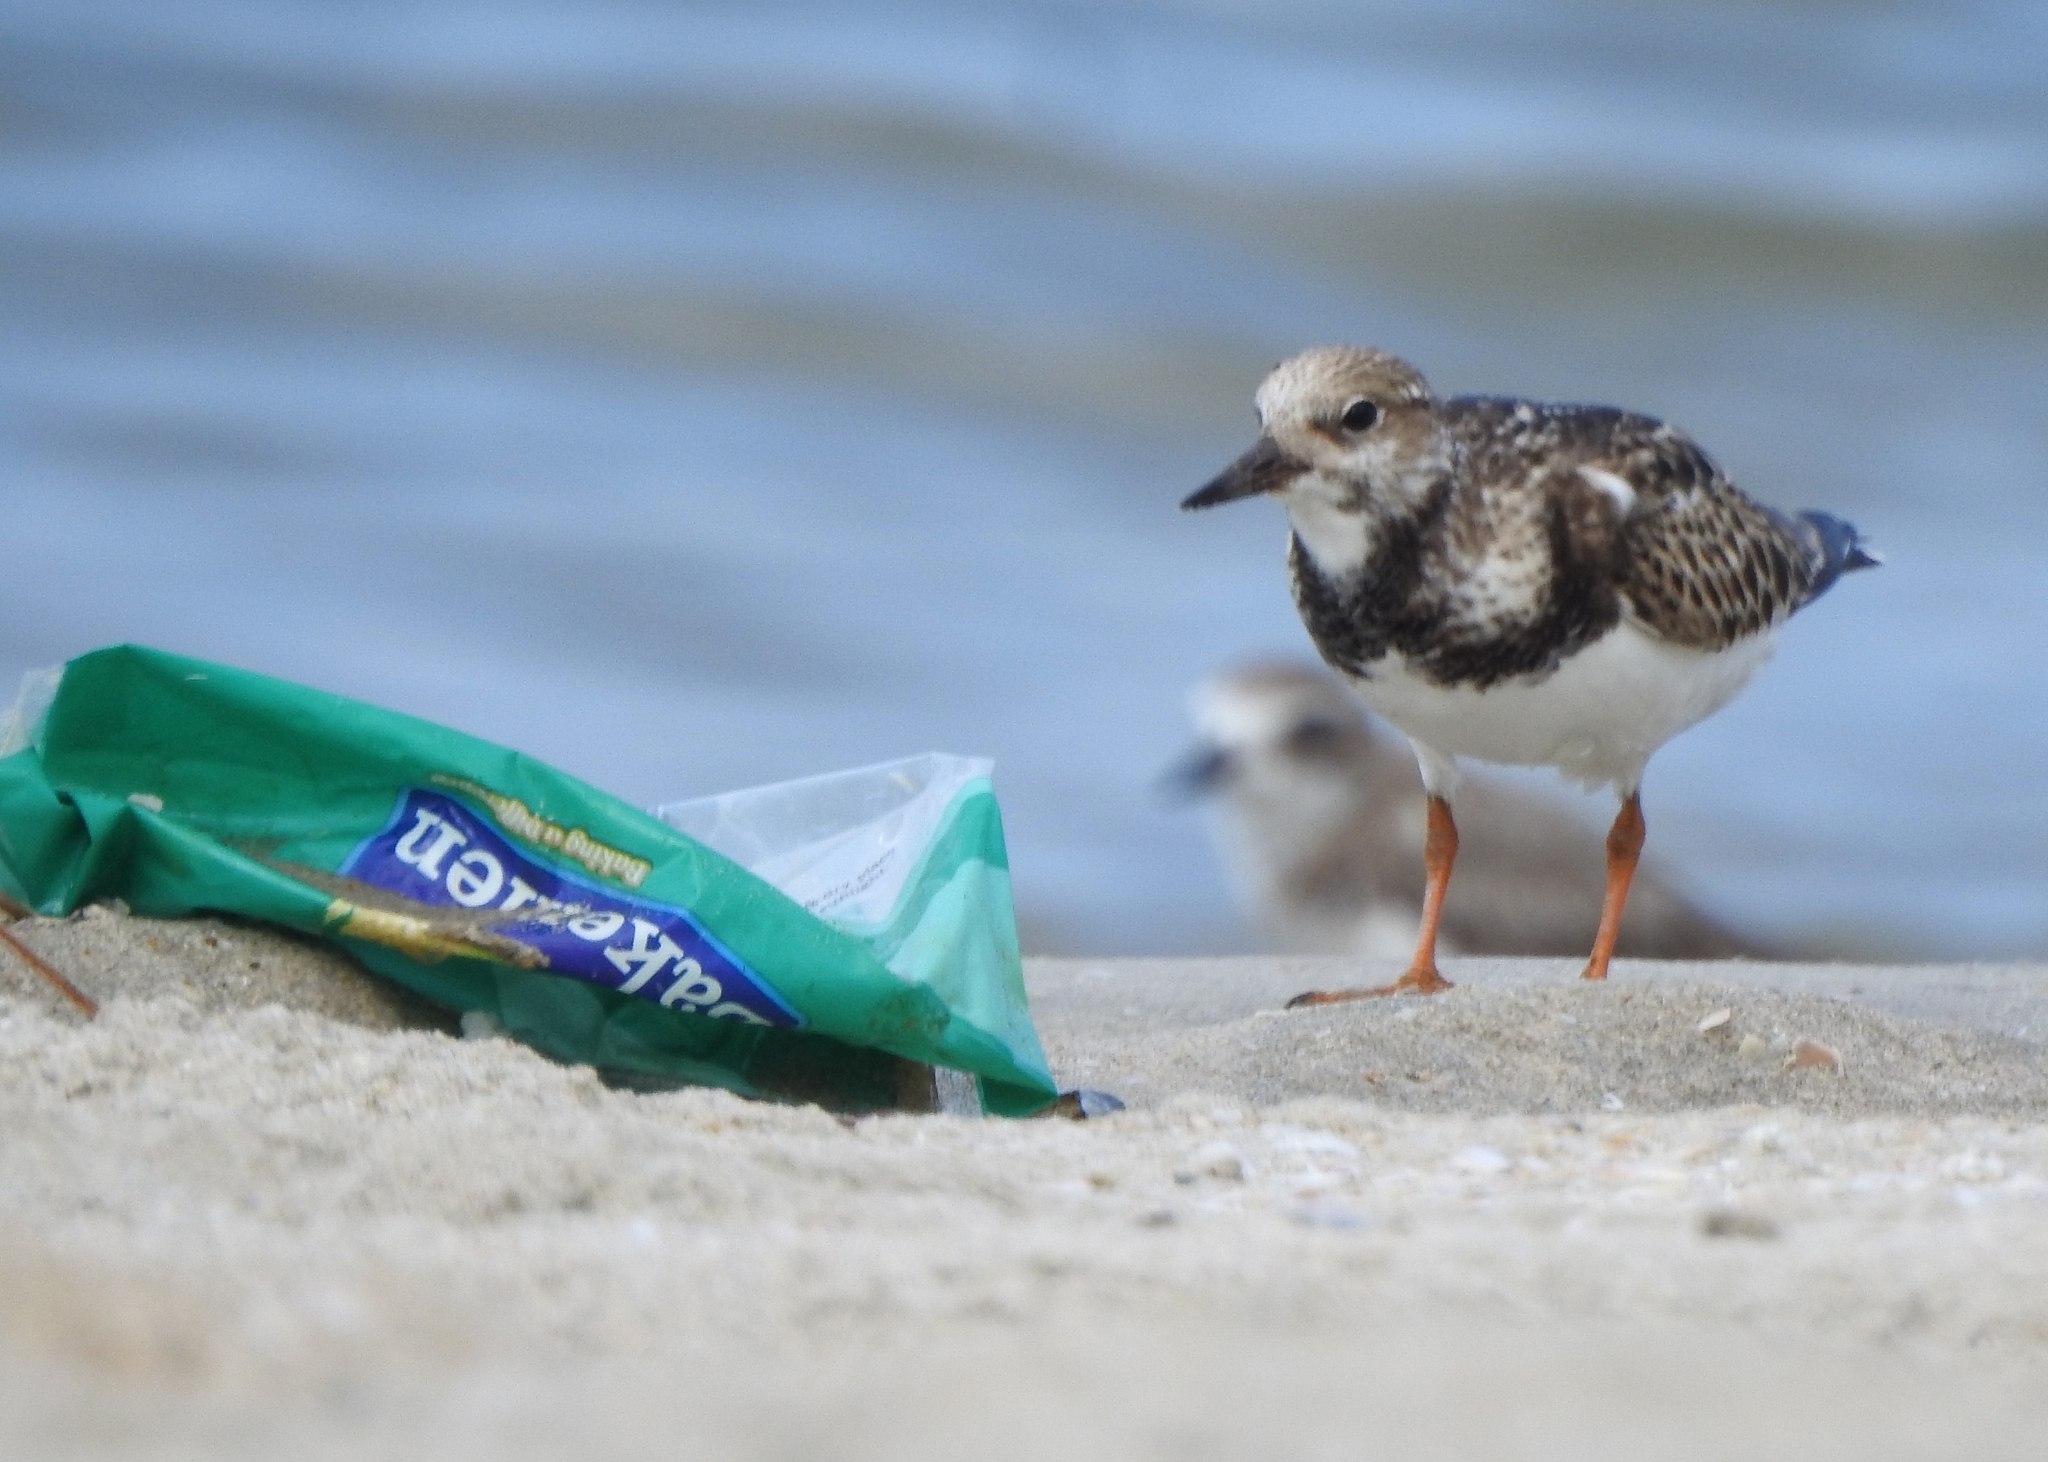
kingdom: Animalia
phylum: Chordata
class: Aves
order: Charadriiformes
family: Scolopacidae
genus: Arenaria
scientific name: Arenaria interpres
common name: Ruddy turnstone
